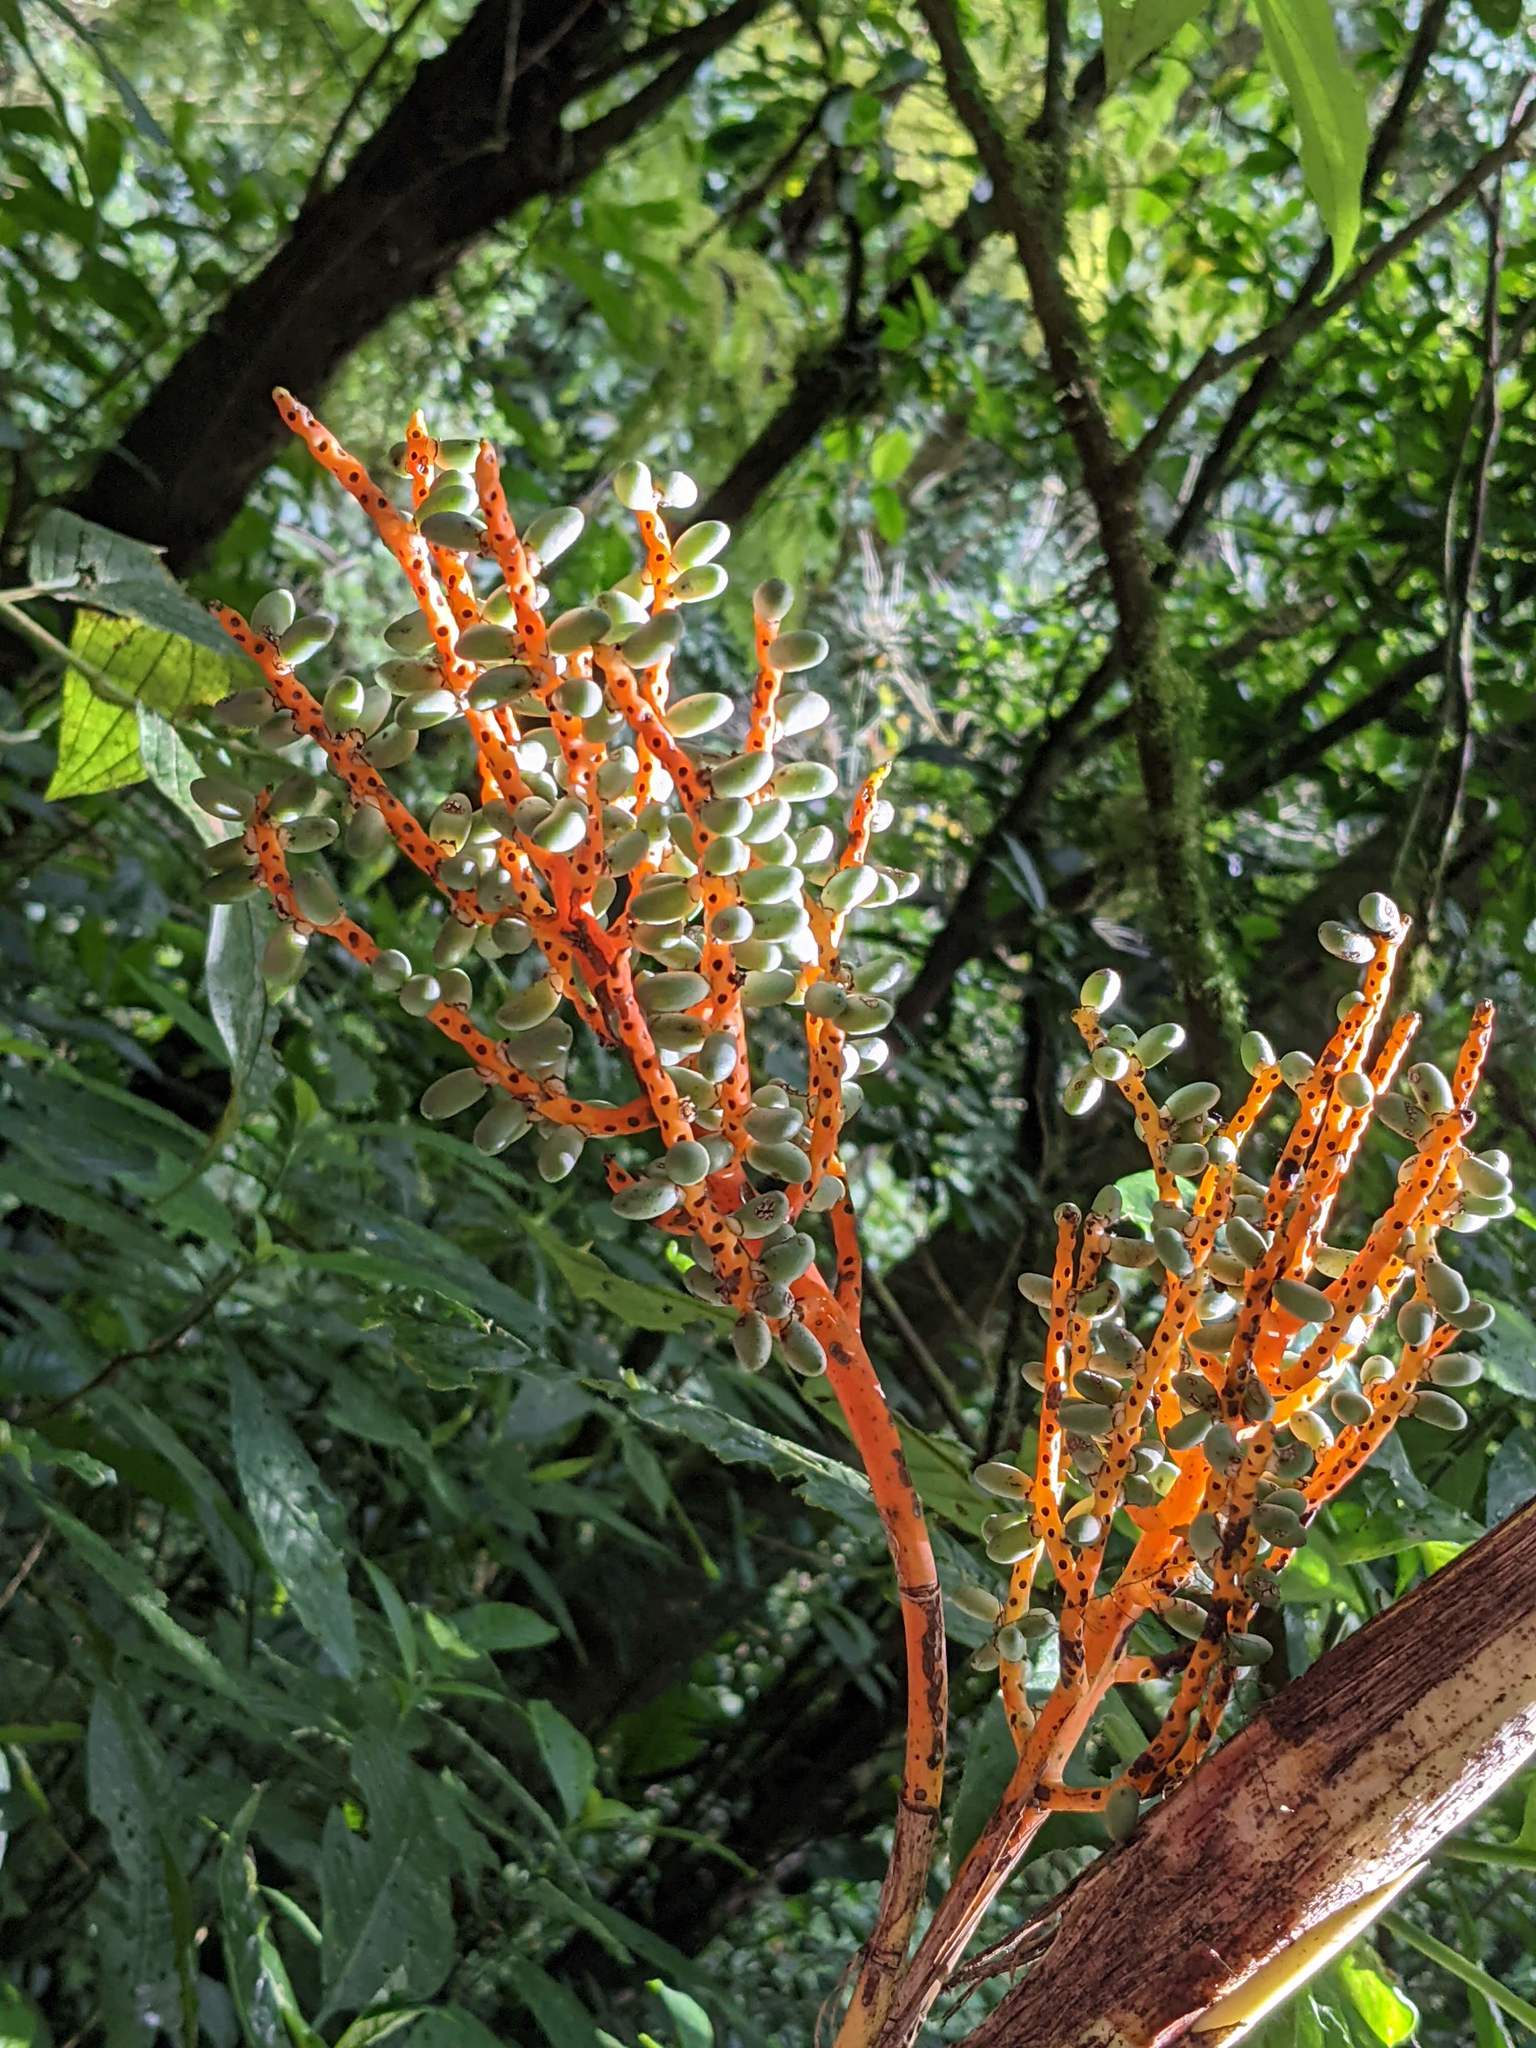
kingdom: Plantae
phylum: Tracheophyta
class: Liliopsida
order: Arecales
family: Arecaceae
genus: Chamaedorea
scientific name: Chamaedorea tepejilote
